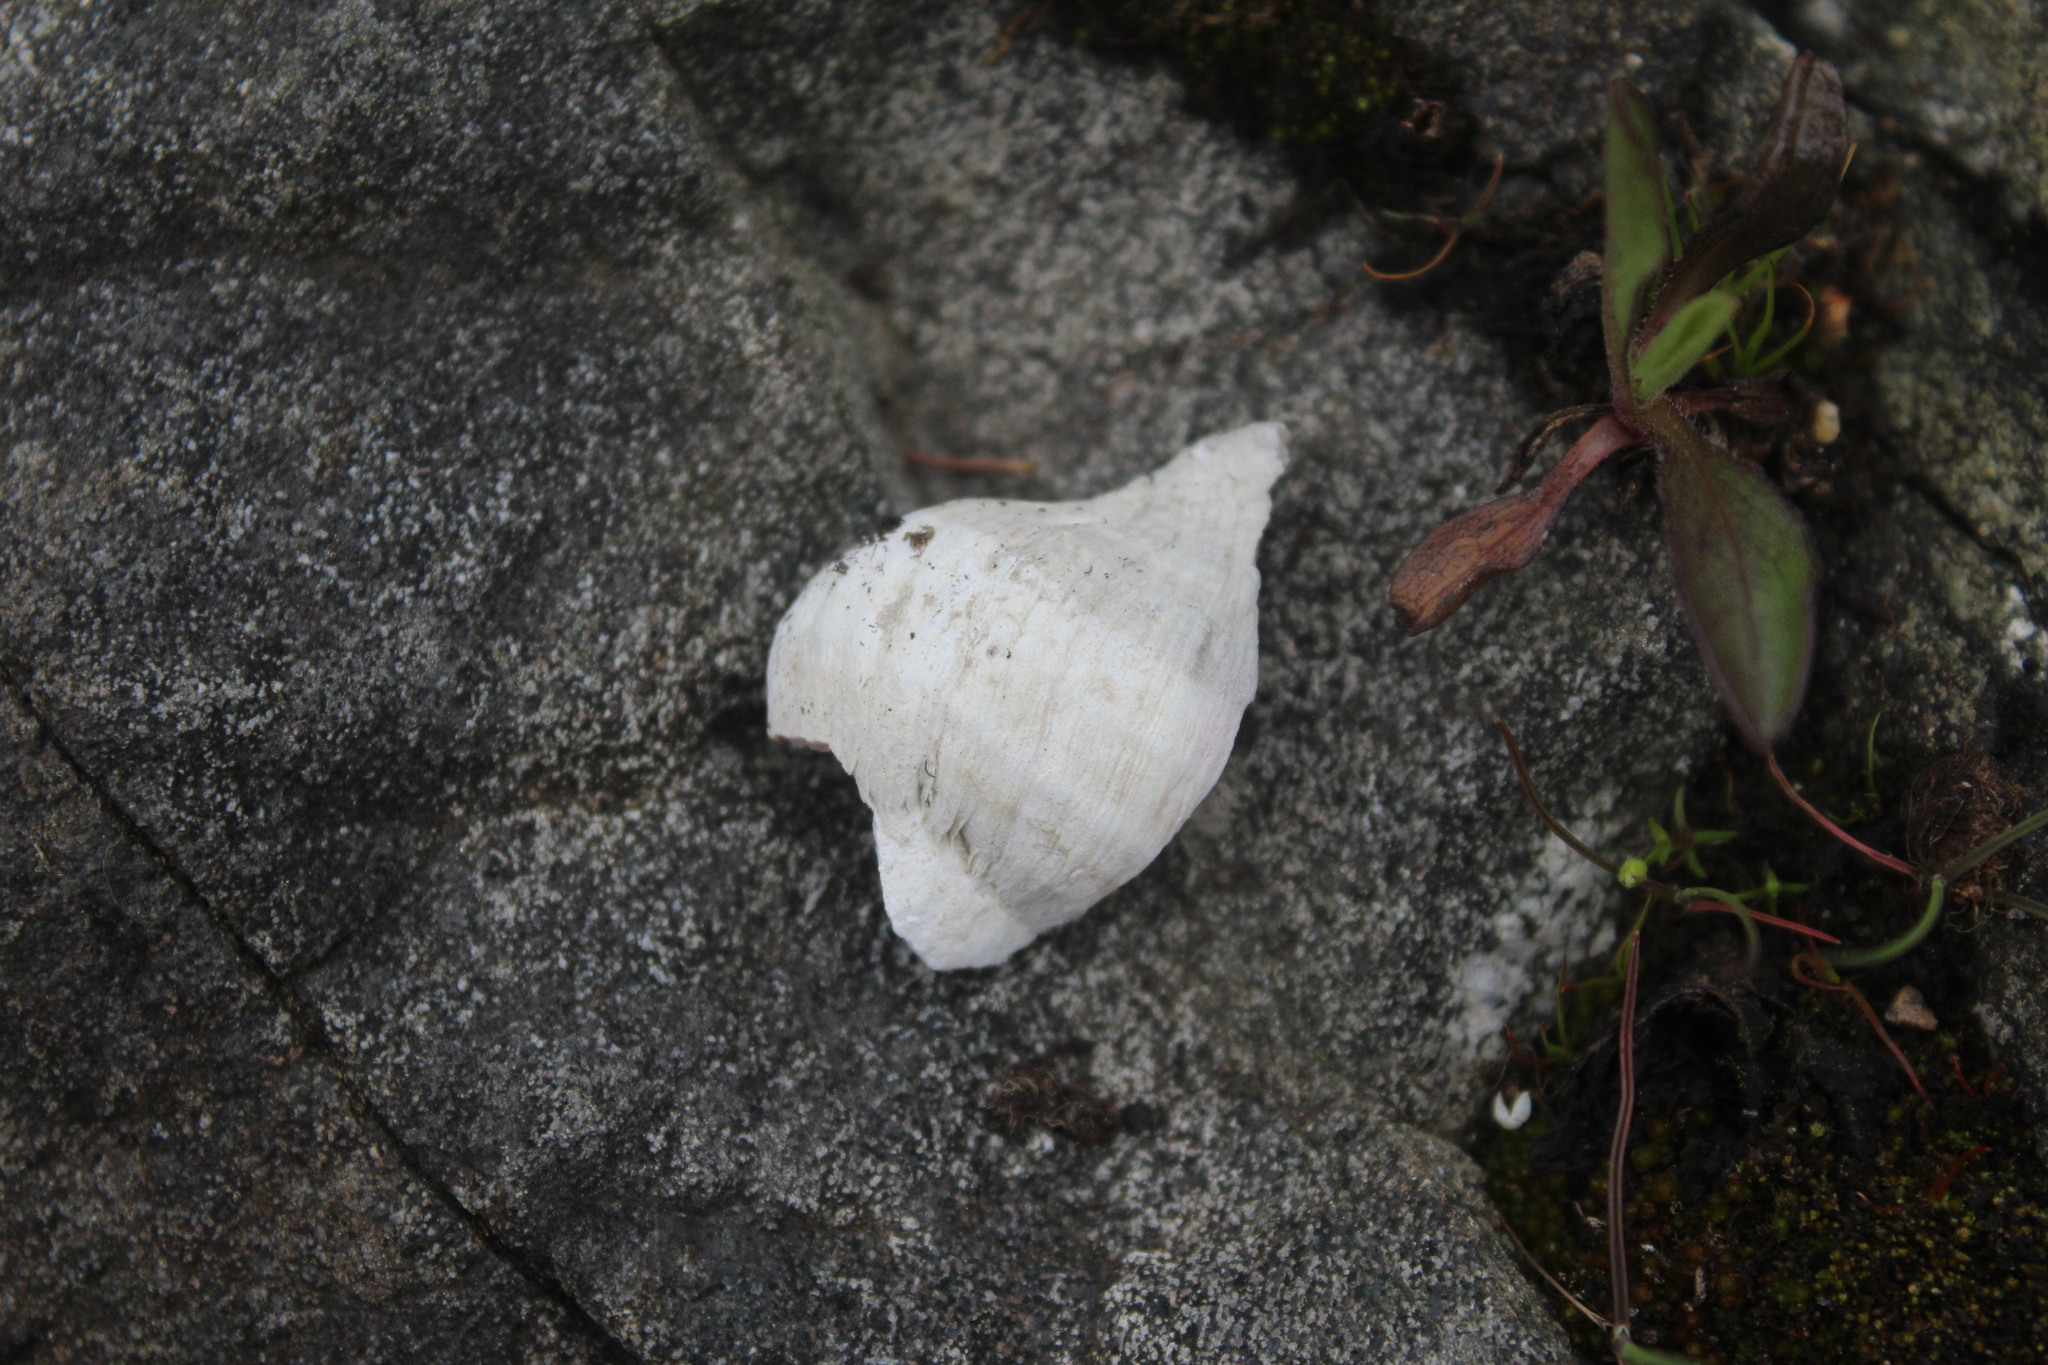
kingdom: Animalia
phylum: Mollusca
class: Gastropoda
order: Neogastropoda
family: Muricidae
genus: Nucella
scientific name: Nucella lamellosa
